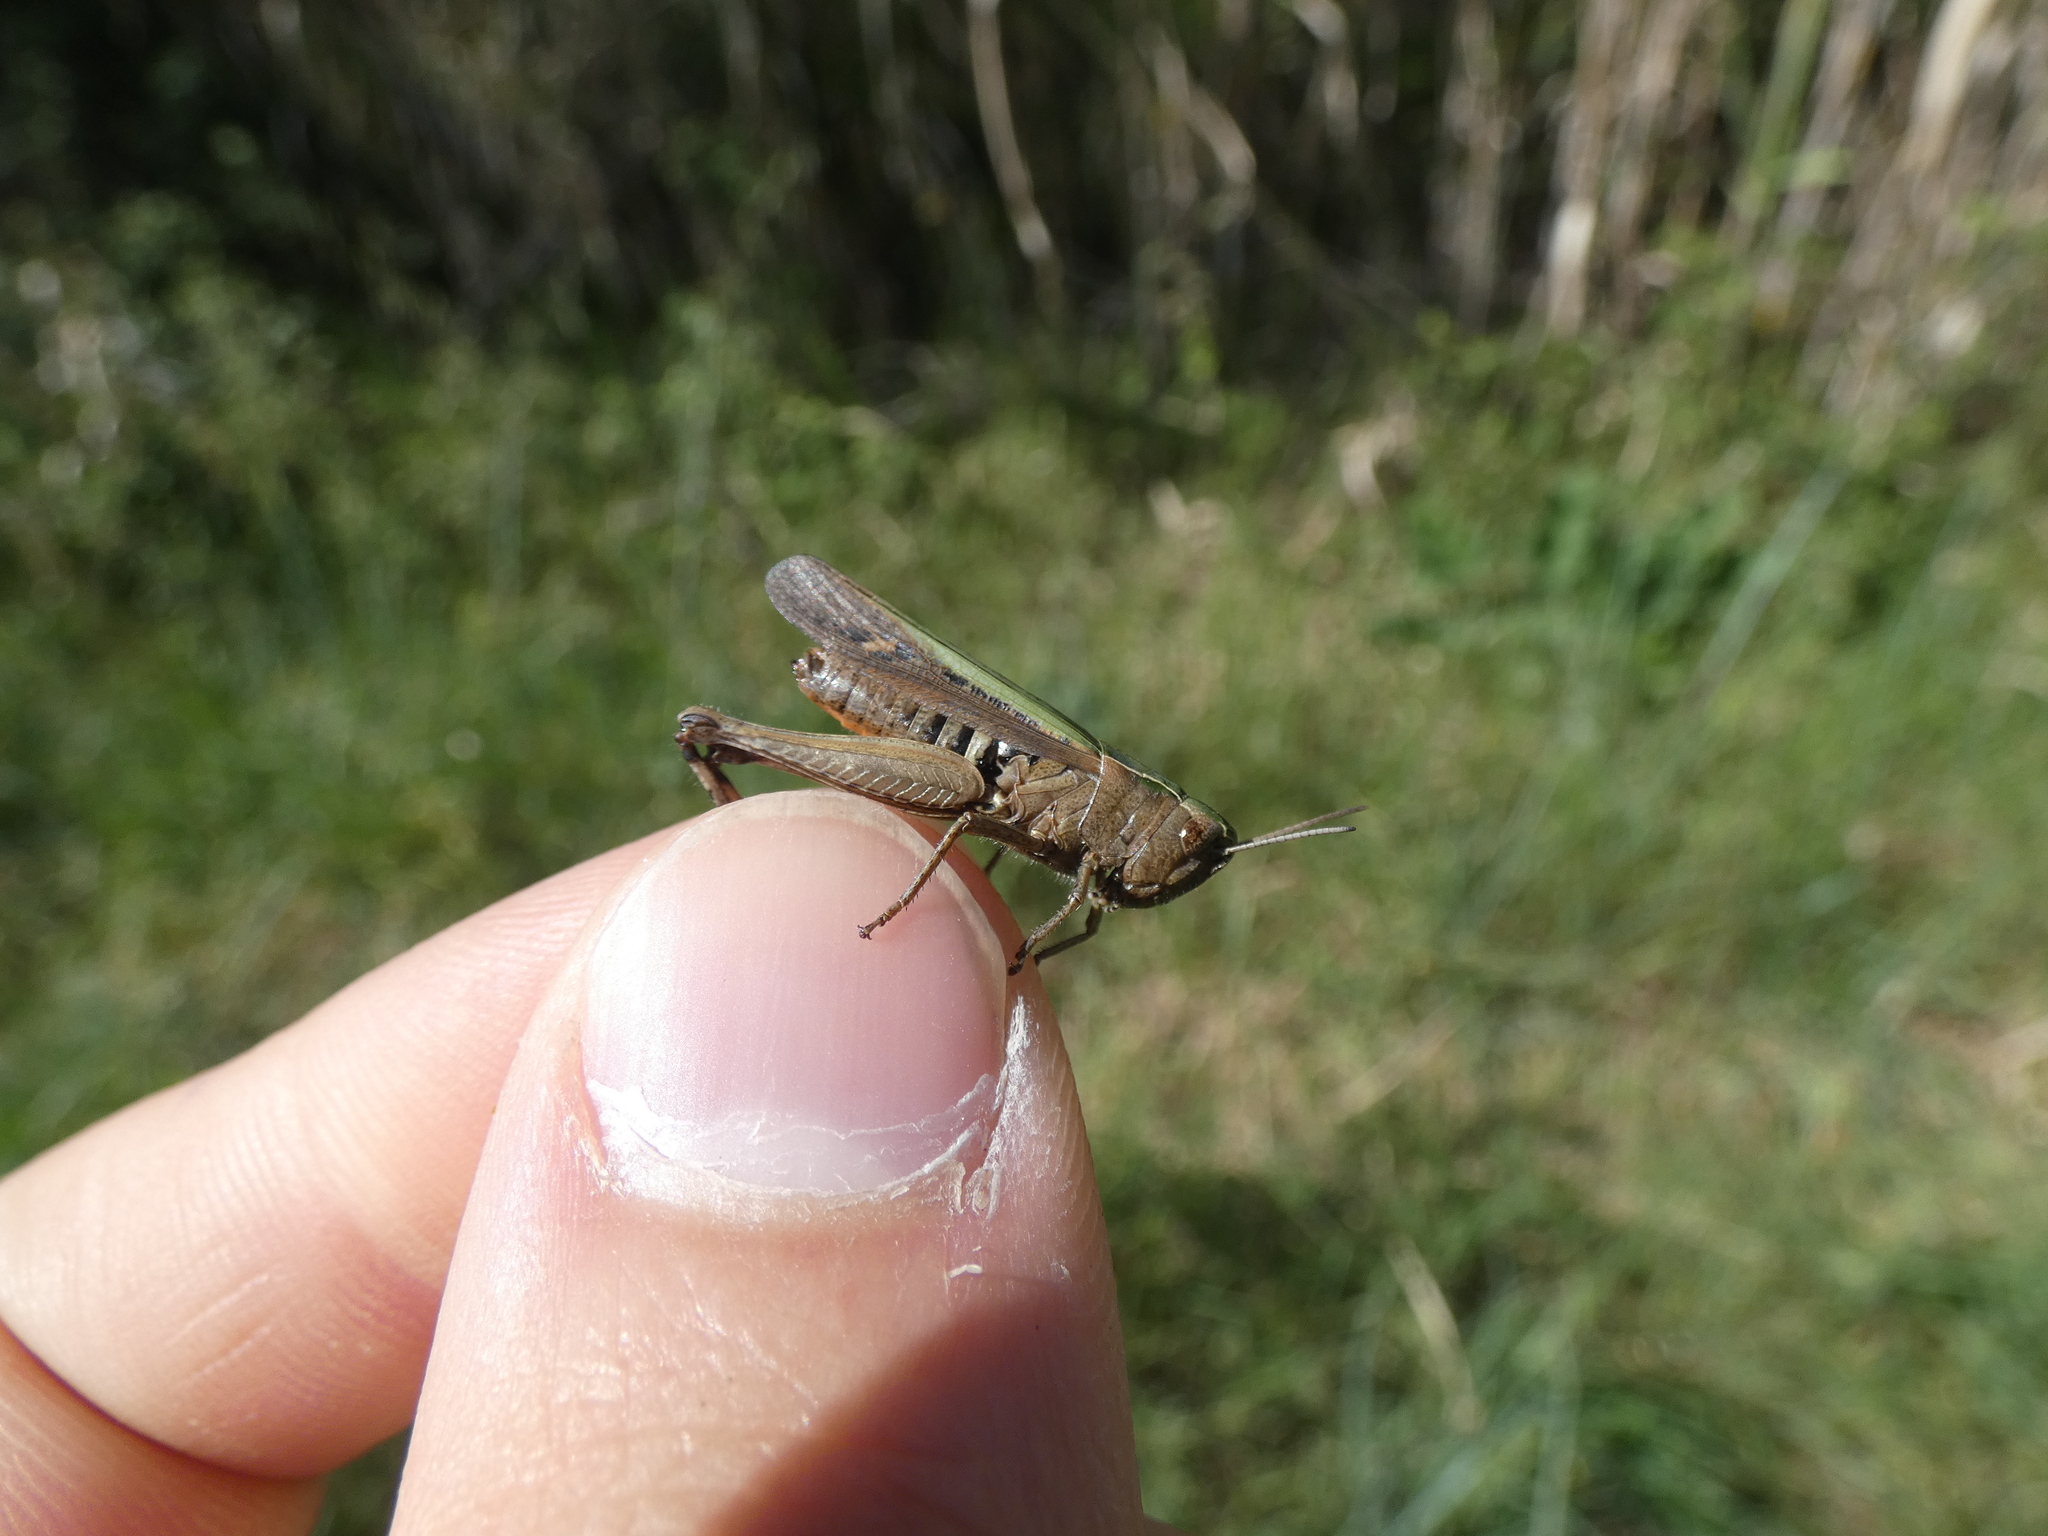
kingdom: Animalia
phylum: Arthropoda
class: Insecta
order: Orthoptera
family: Acrididae
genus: Omocestus
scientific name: Omocestus rufipes
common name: Woodland grasshopper
